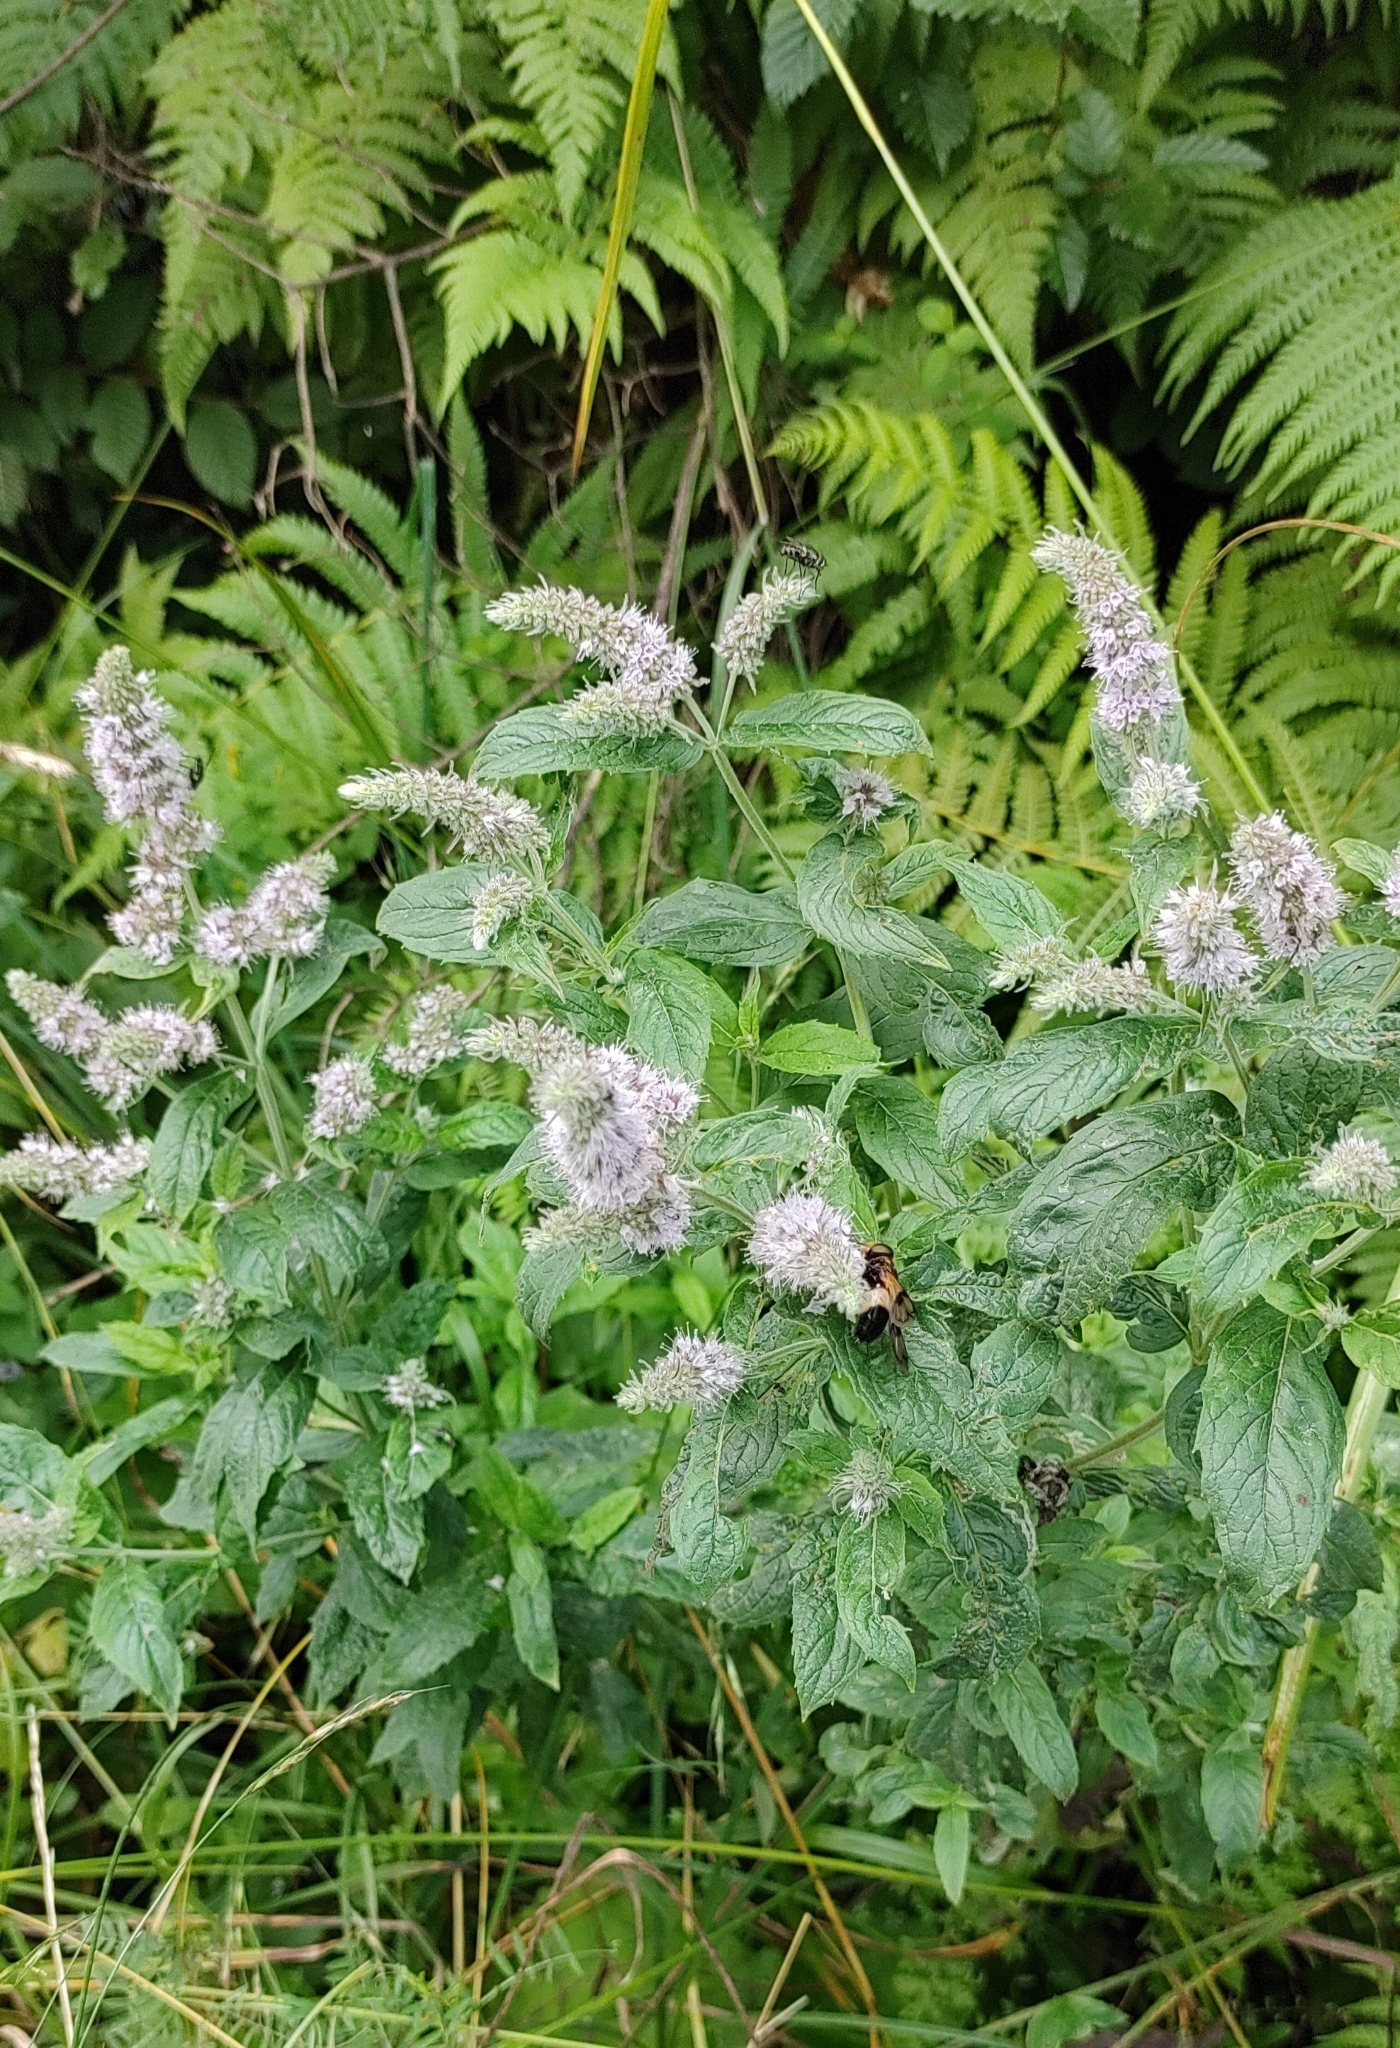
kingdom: Plantae
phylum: Tracheophyta
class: Magnoliopsida
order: Lamiales
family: Lamiaceae
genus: Mentha
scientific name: Mentha longifolia
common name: Horse mint
